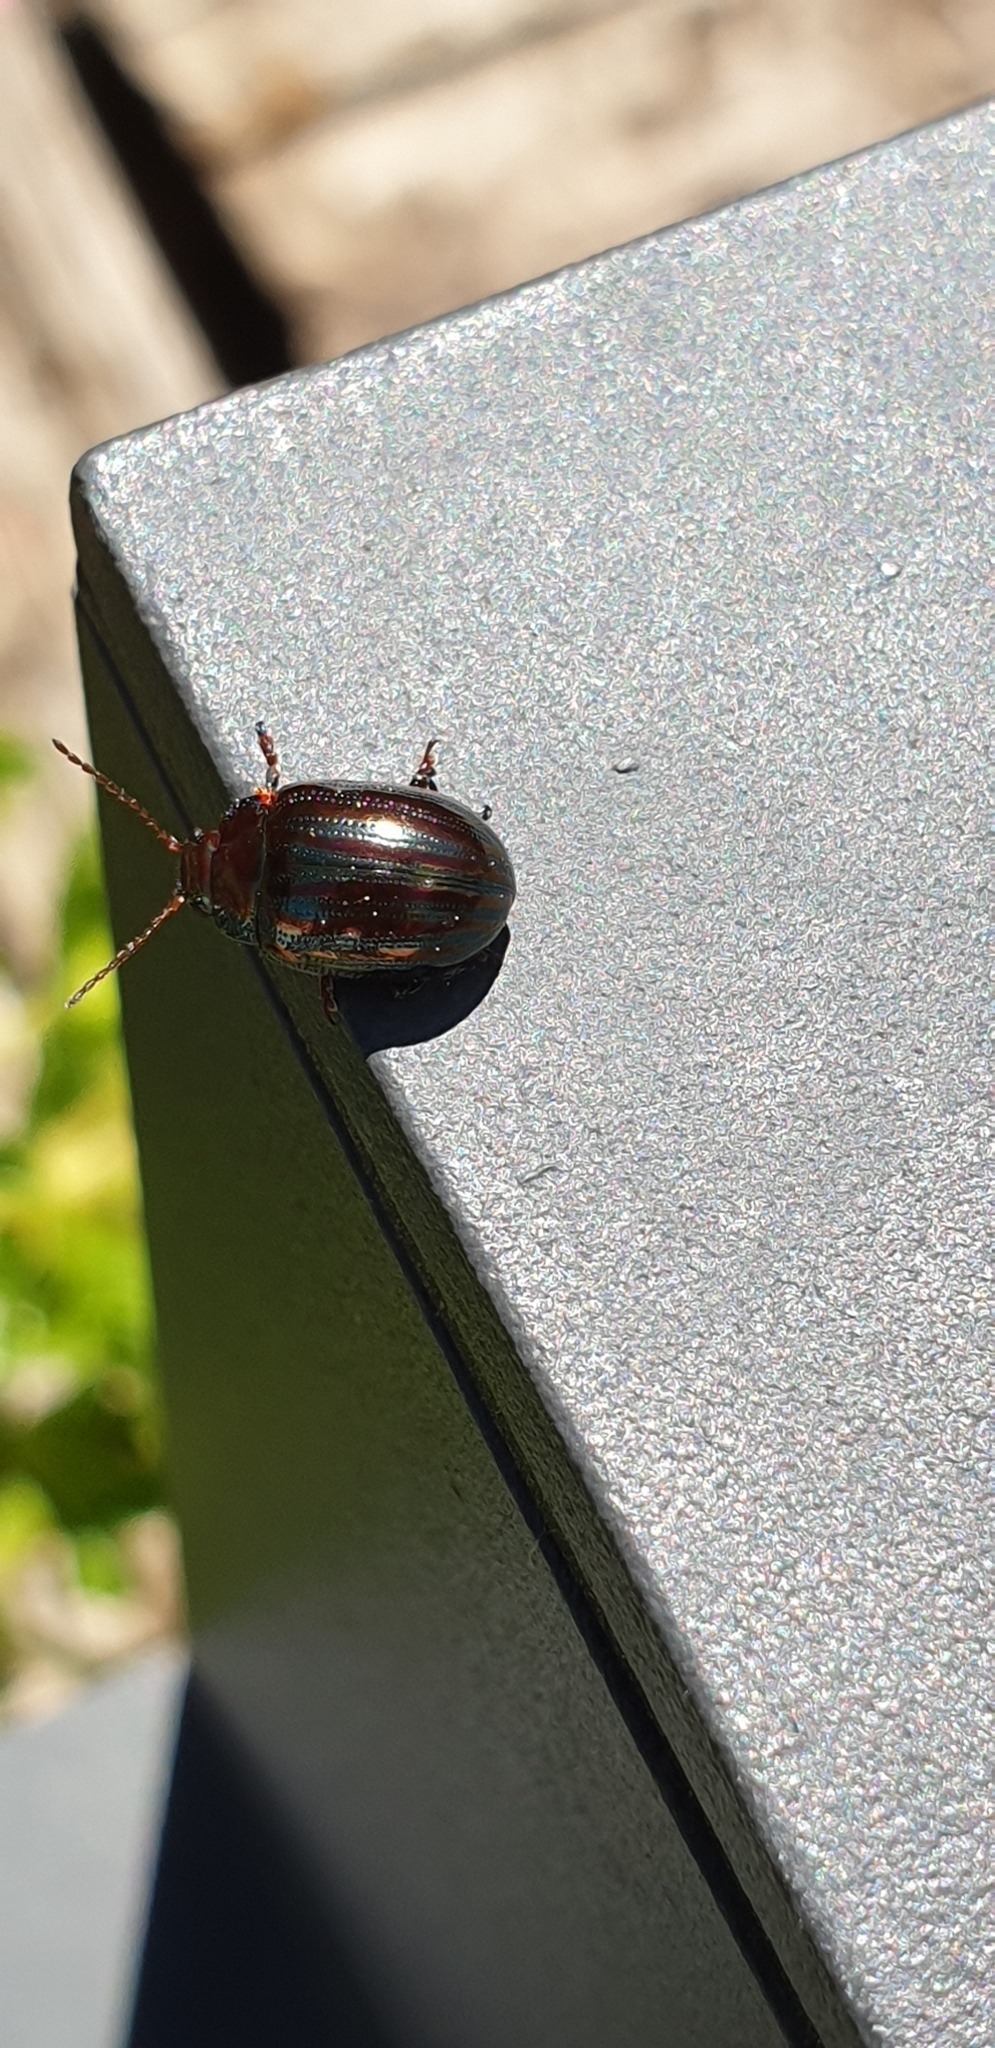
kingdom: Animalia
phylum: Arthropoda
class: Insecta
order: Coleoptera
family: Chrysomelidae
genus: Chrysolina
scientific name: Chrysolina americana
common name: Rosemary beetle
